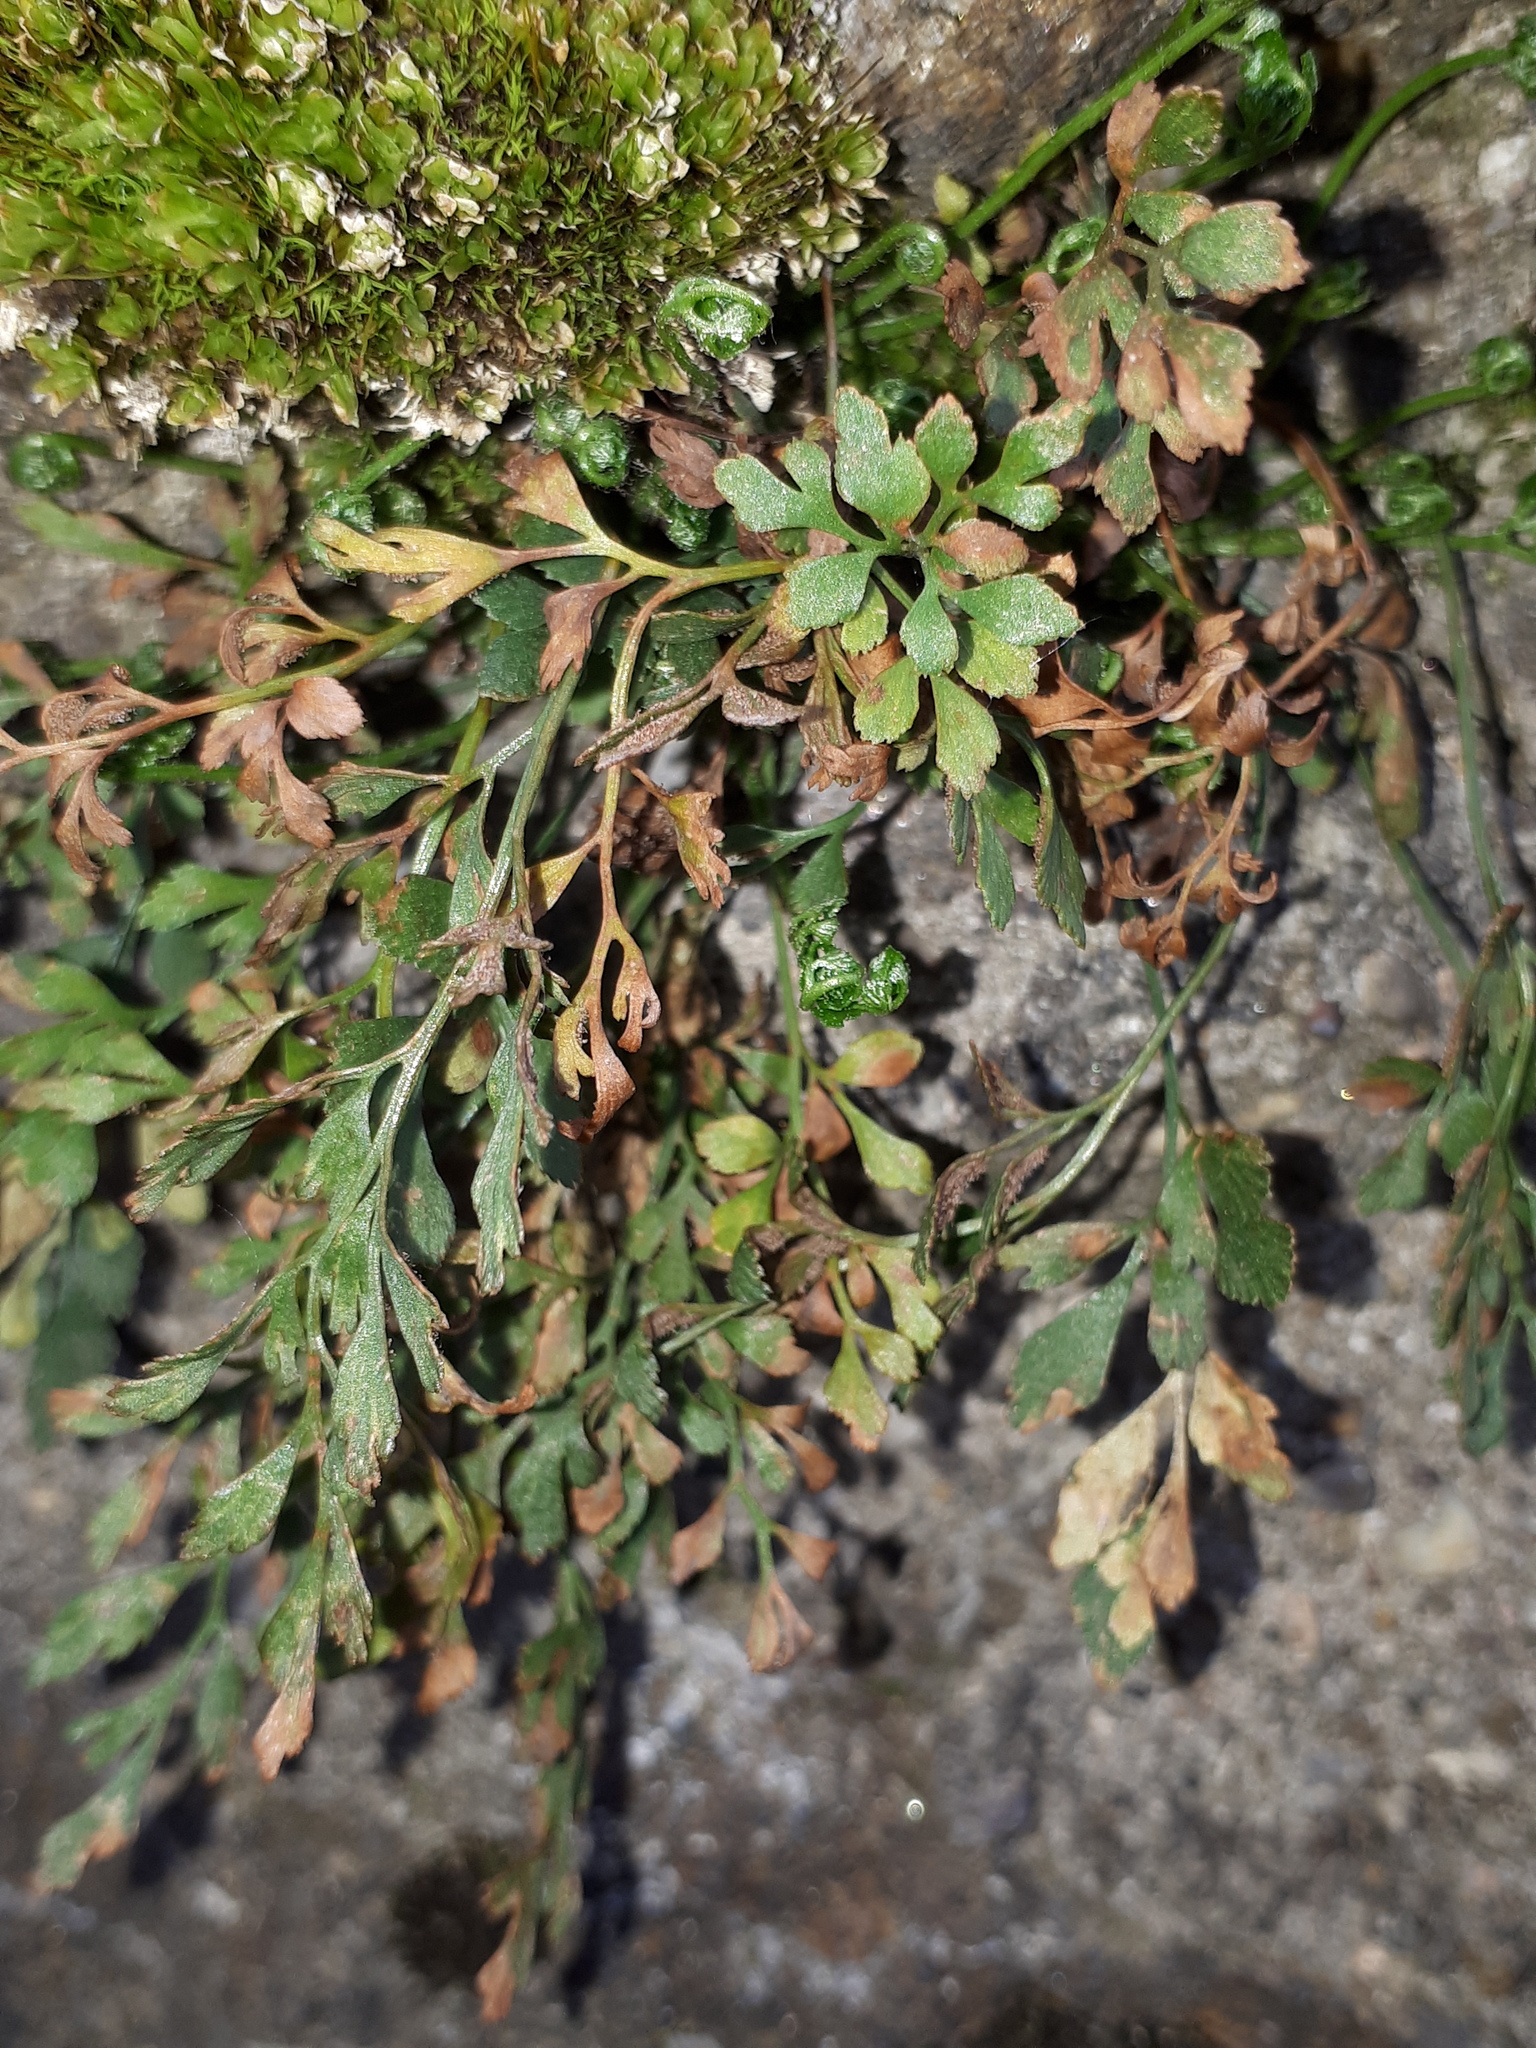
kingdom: Plantae
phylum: Tracheophyta
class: Polypodiopsida
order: Polypodiales
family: Aspleniaceae
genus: Asplenium
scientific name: Asplenium ruta-muraria
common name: Wall-rue
